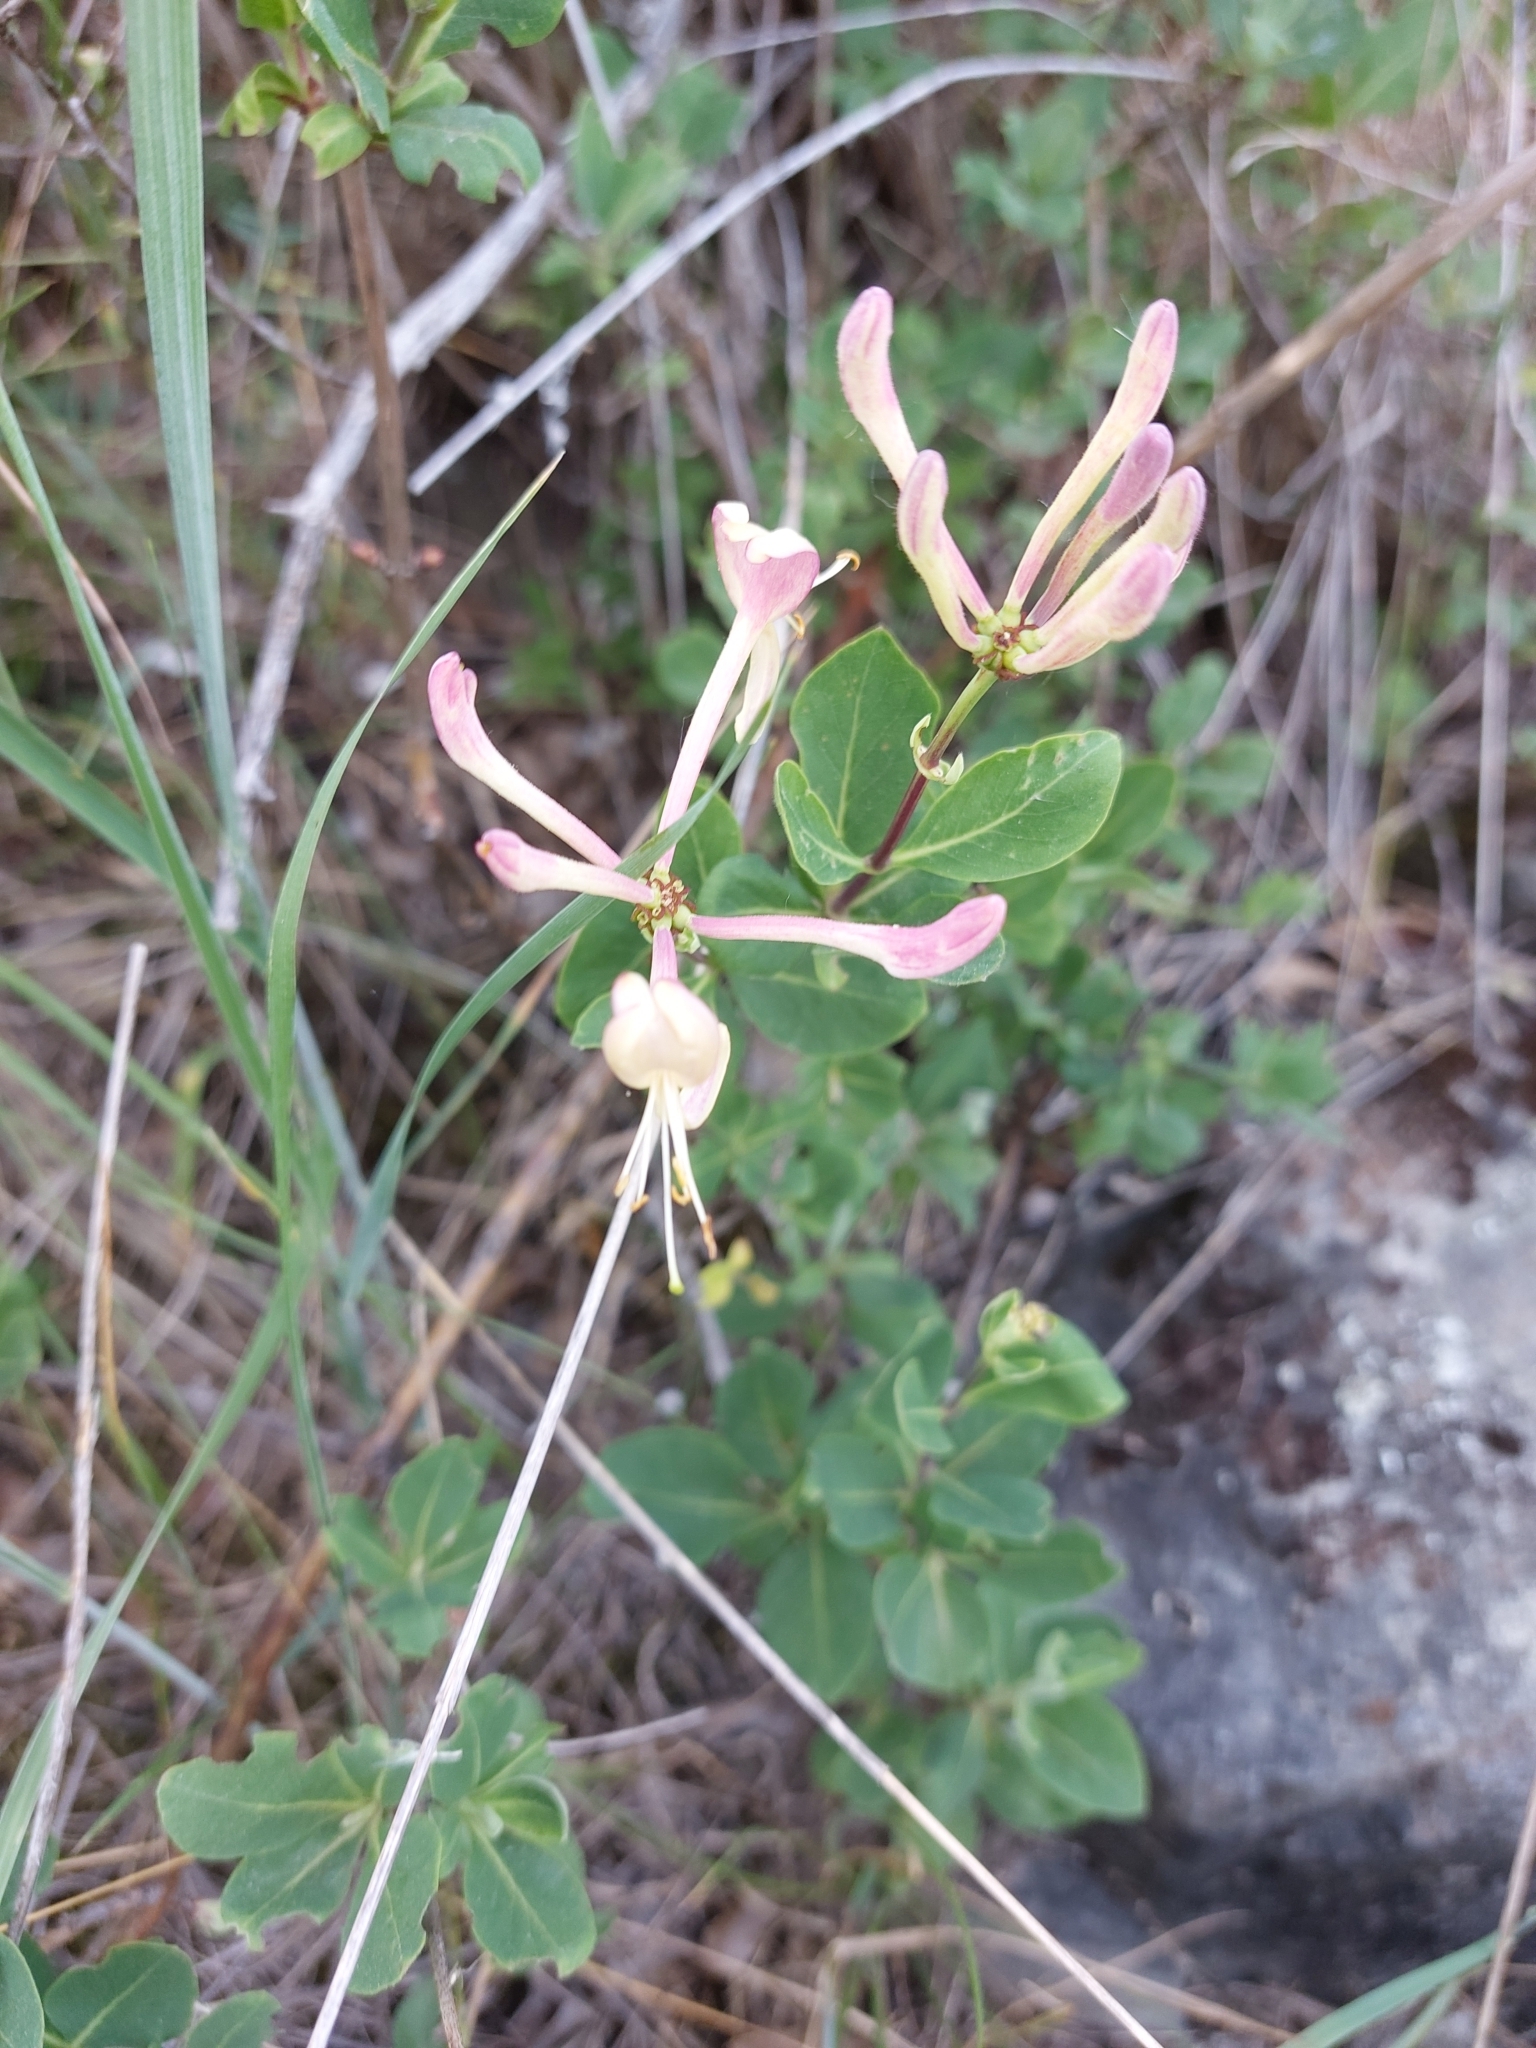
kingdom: Plantae
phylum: Tracheophyta
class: Magnoliopsida
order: Dipsacales
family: Caprifoliaceae
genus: Lonicera
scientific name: Lonicera etrusca
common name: Etruscan honeysuckle
